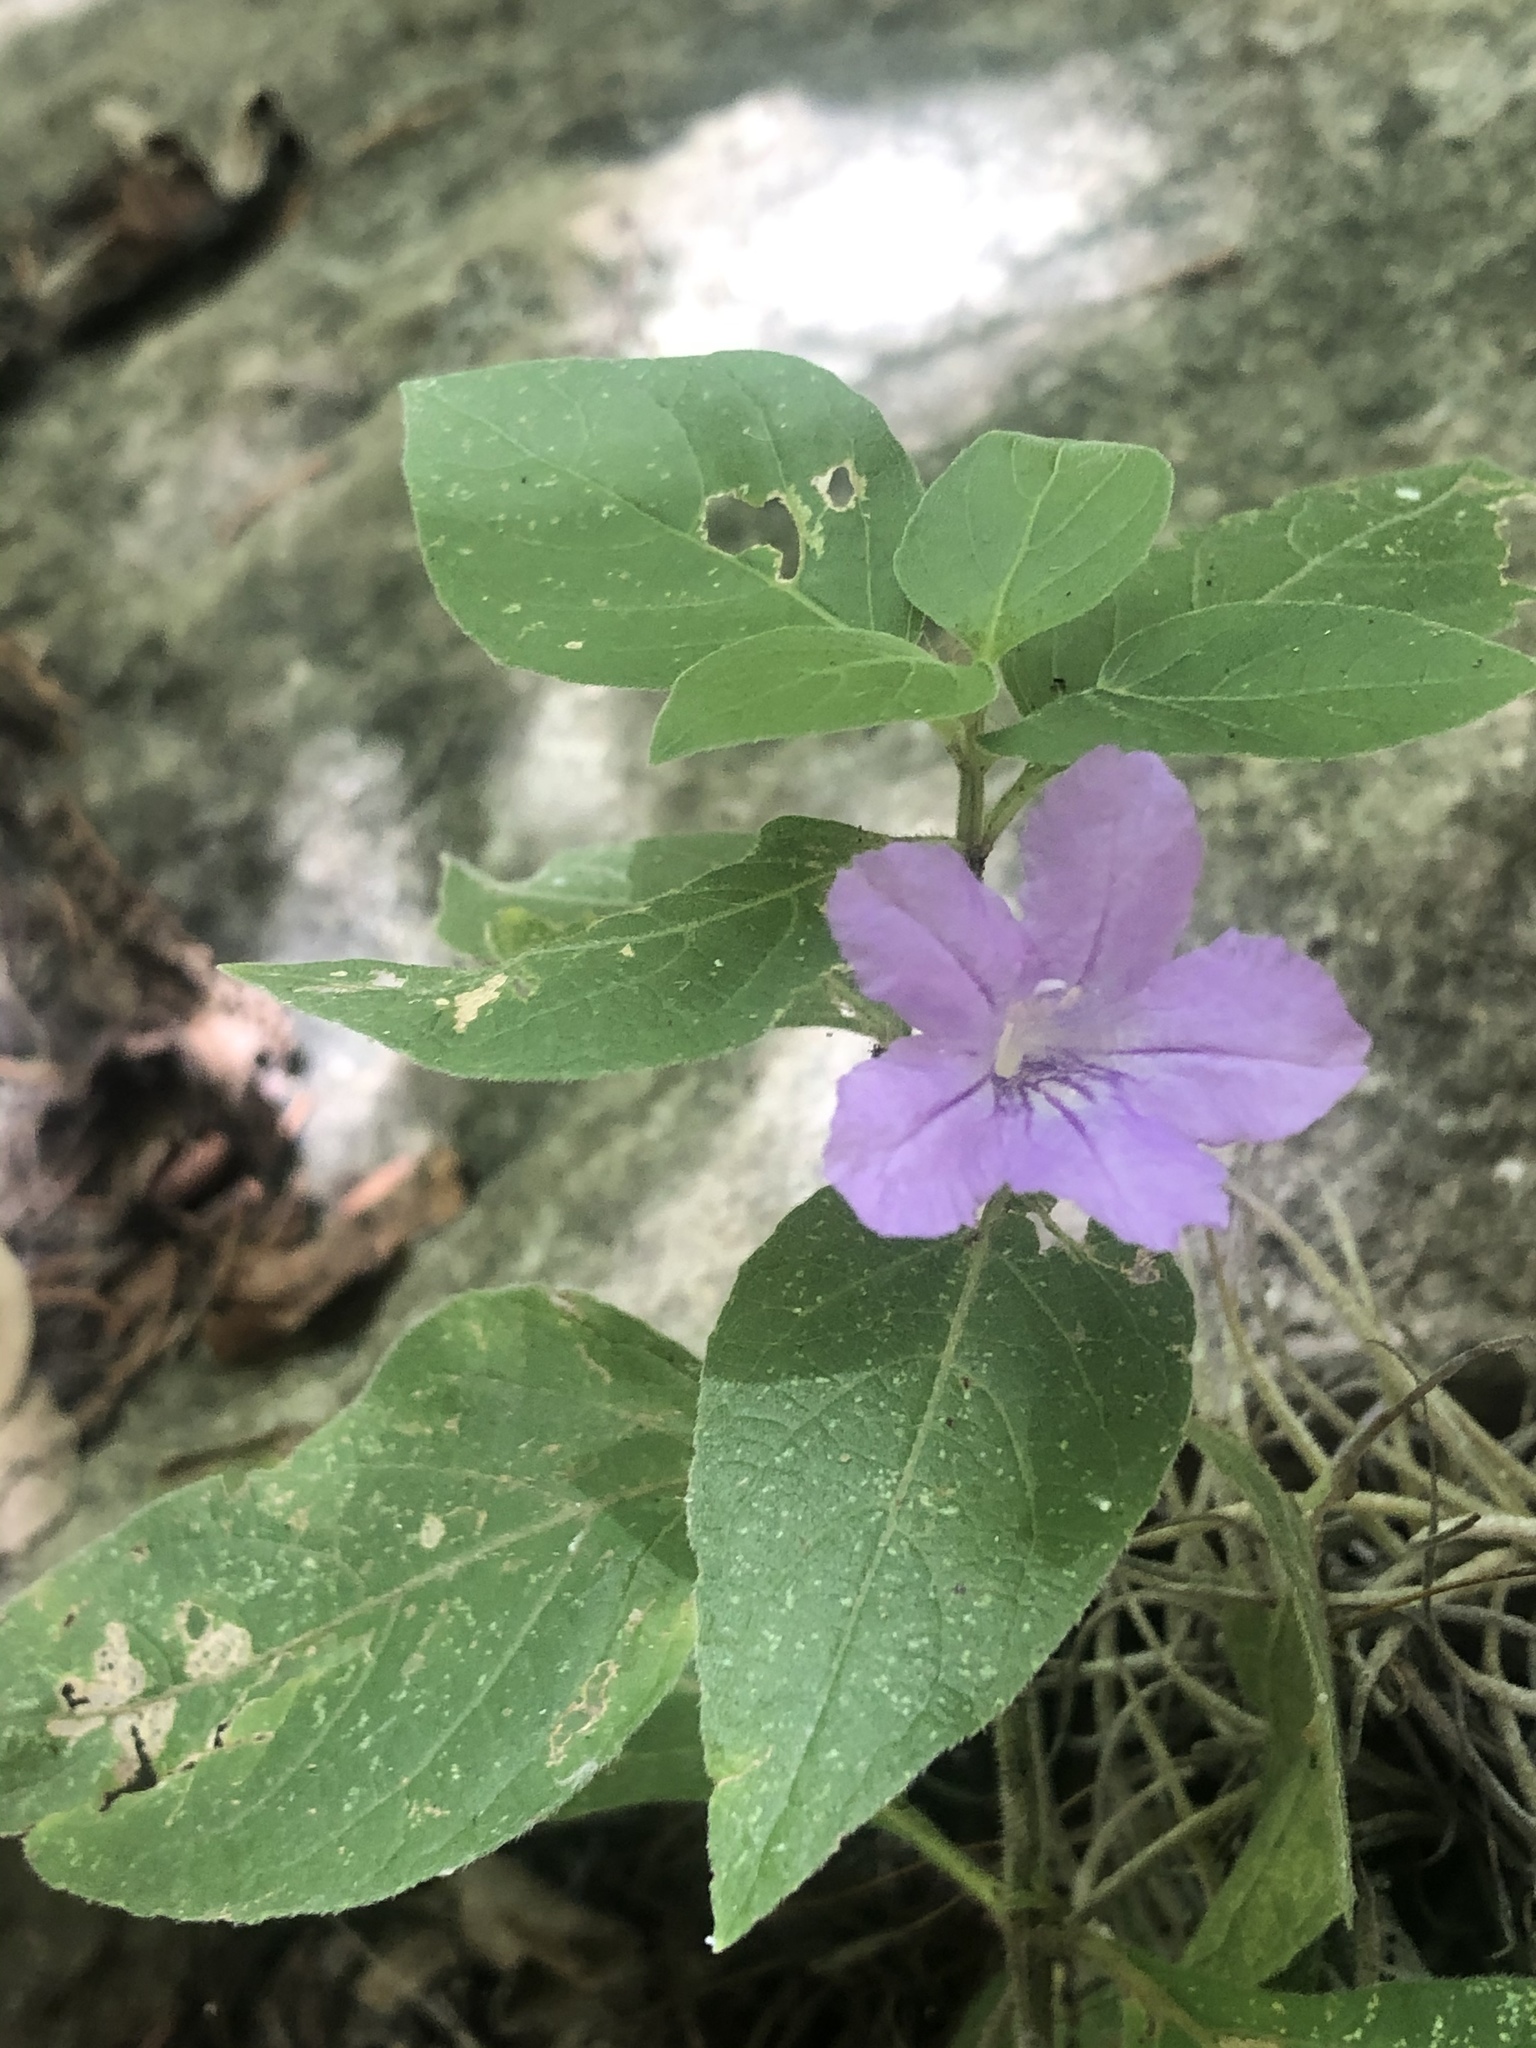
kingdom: Plantae
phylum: Tracheophyta
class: Magnoliopsida
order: Lamiales
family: Acanthaceae
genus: Ruellia
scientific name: Ruellia drummondiana
